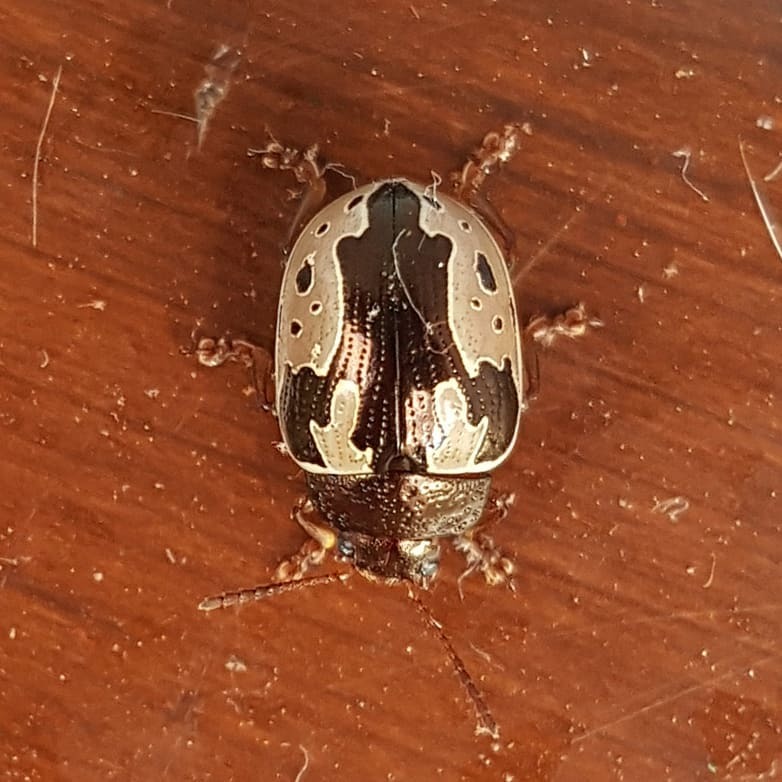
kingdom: Animalia
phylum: Arthropoda
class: Insecta
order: Coleoptera
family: Chrysomelidae
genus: Calligrapha
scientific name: Calligrapha
